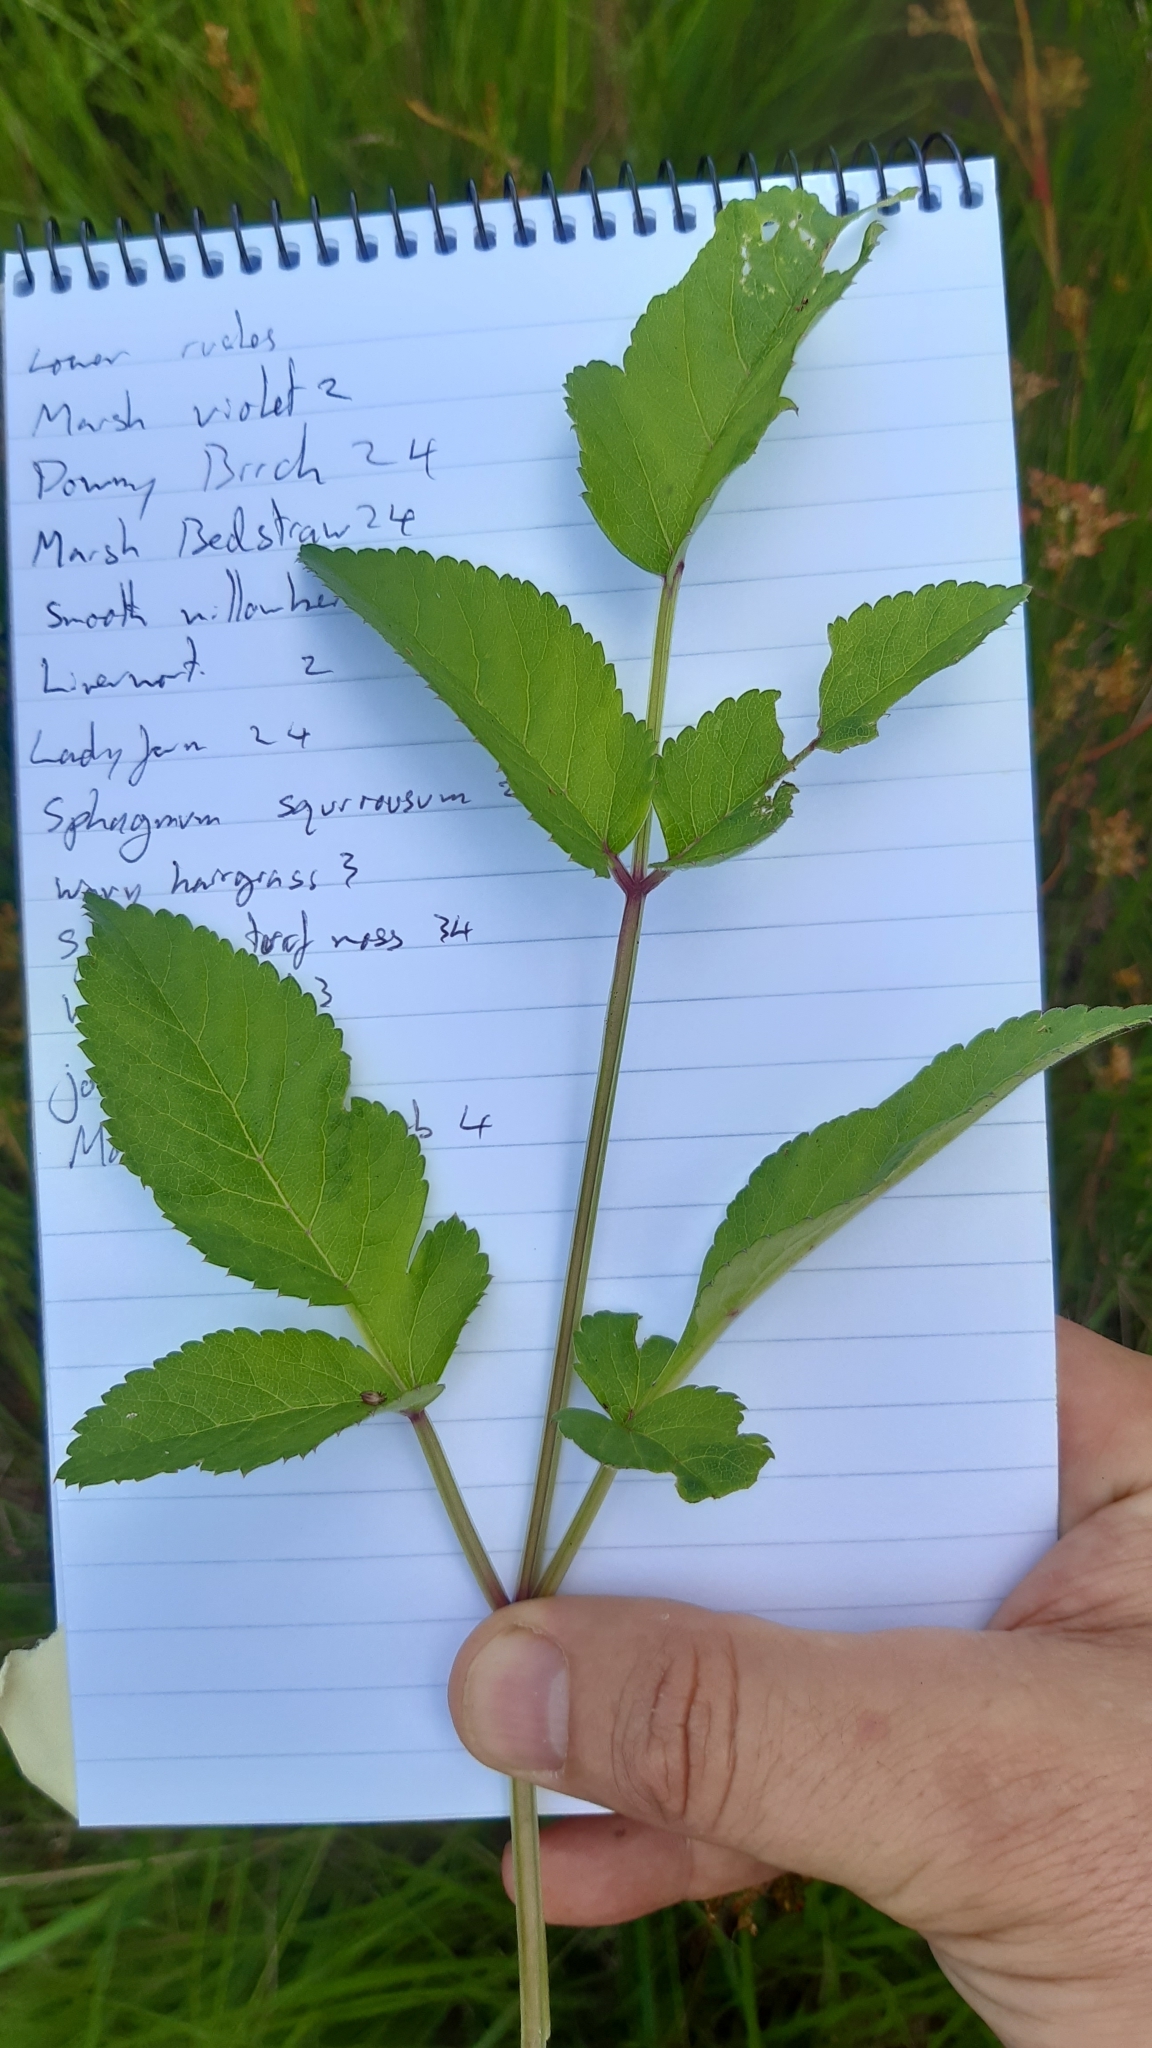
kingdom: Plantae
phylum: Tracheophyta
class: Magnoliopsida
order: Apiales
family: Apiaceae
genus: Angelica
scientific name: Angelica sylvestris
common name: Wild angelica
